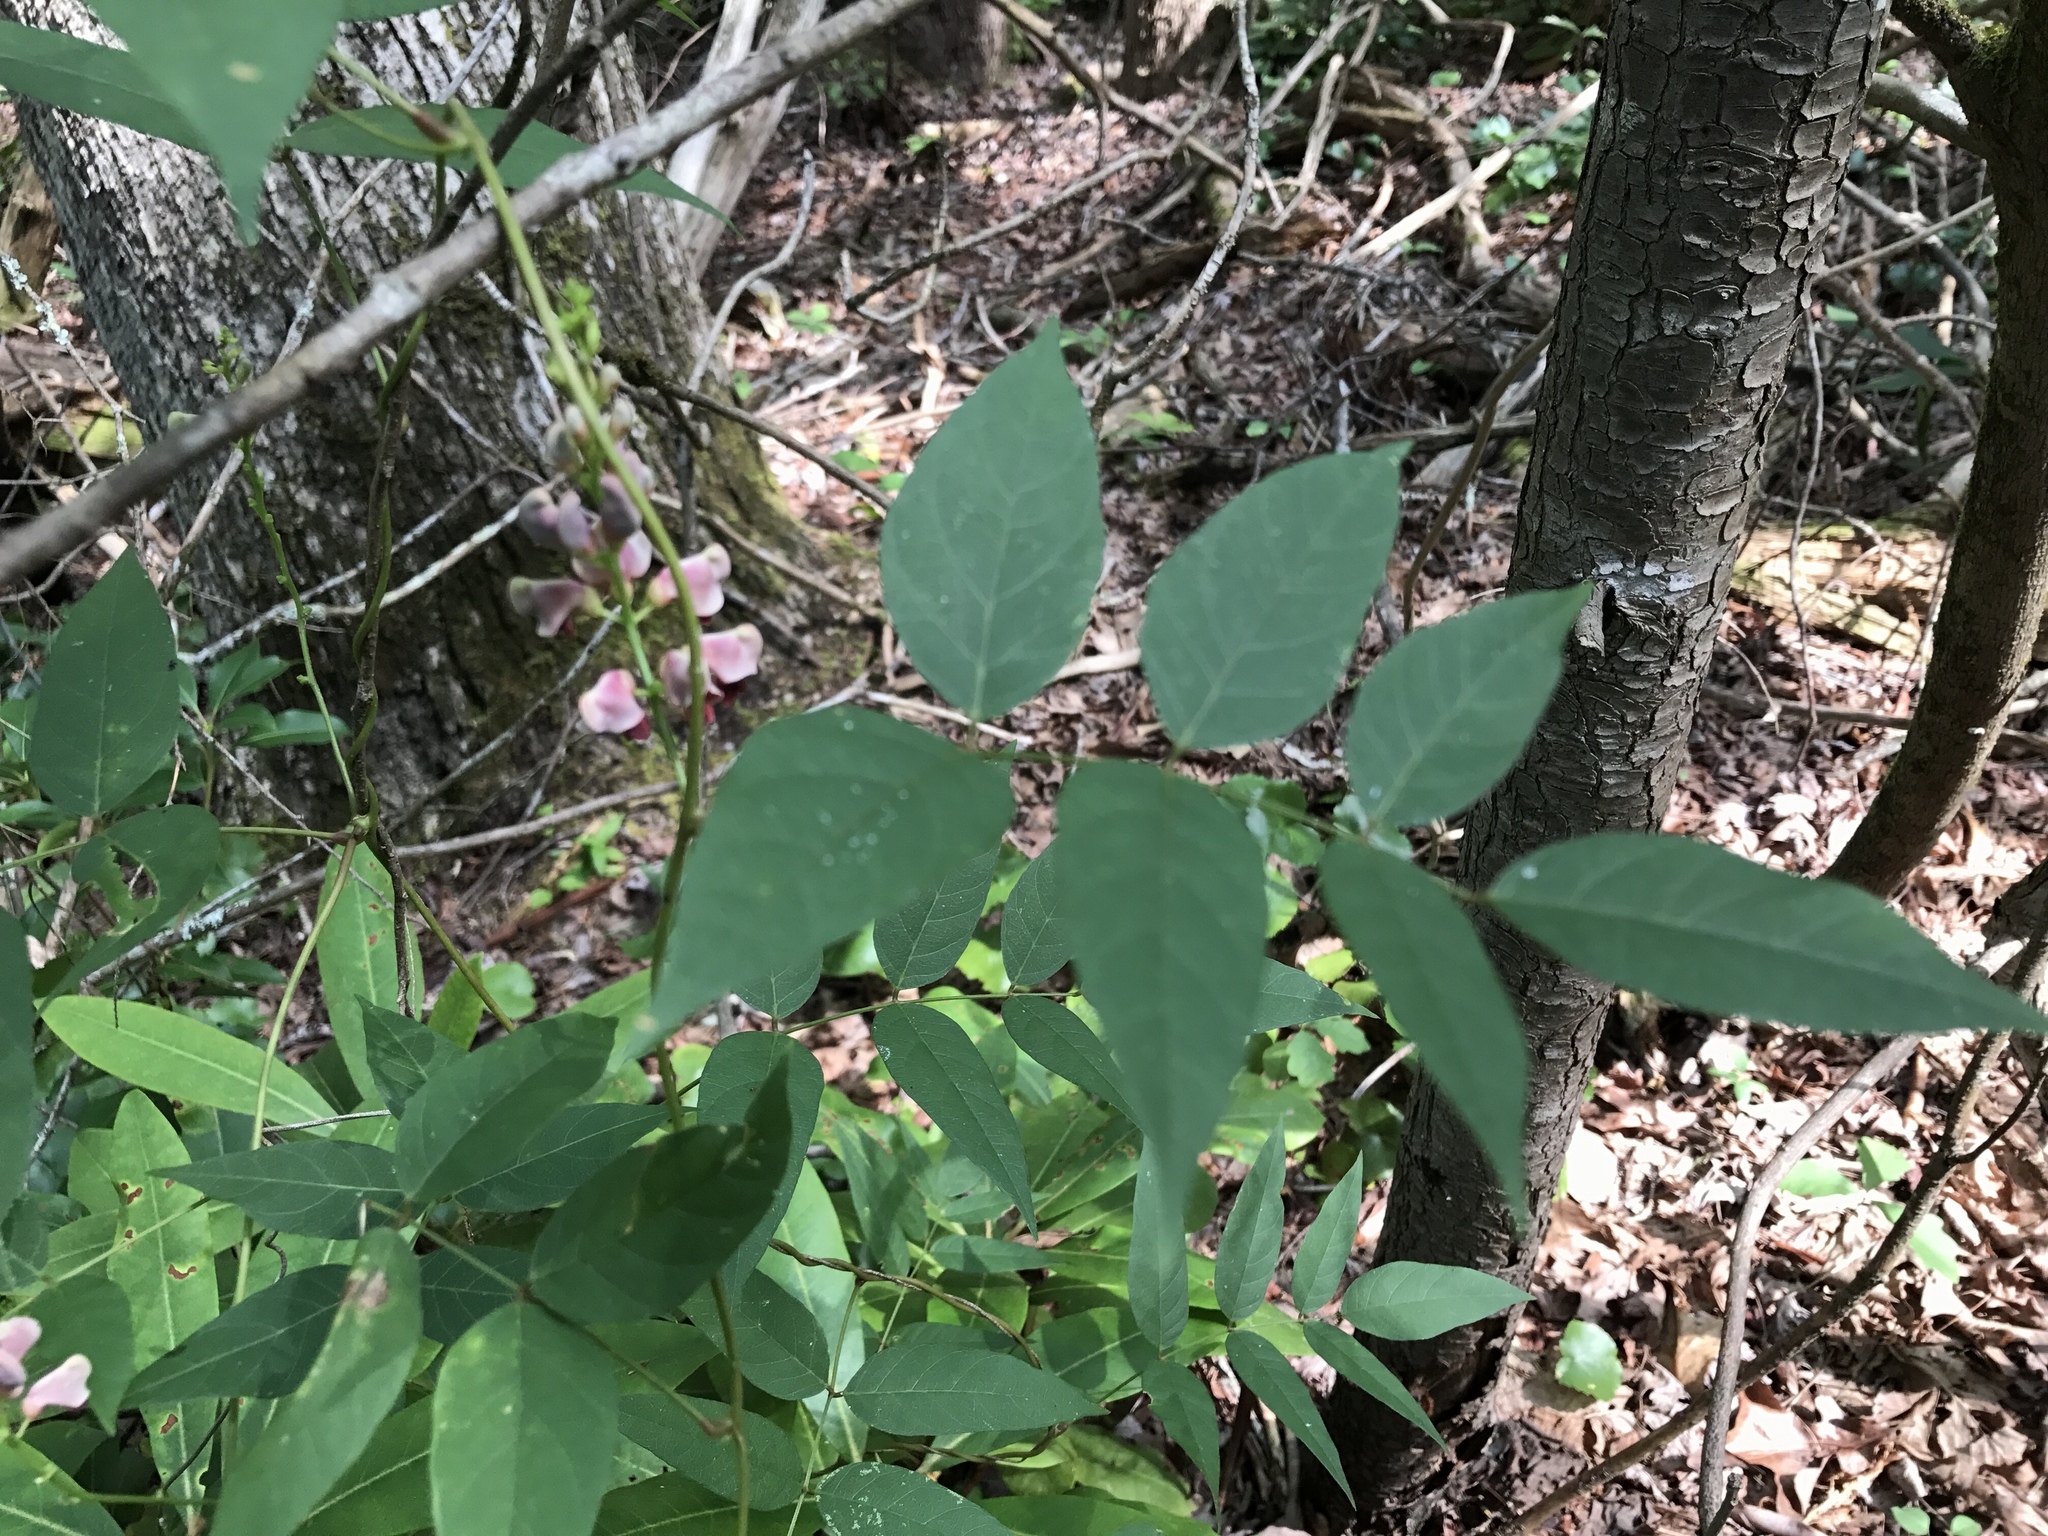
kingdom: Plantae
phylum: Tracheophyta
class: Magnoliopsida
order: Fabales
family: Fabaceae
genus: Apios
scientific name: Apios americana
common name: American potato-bean
